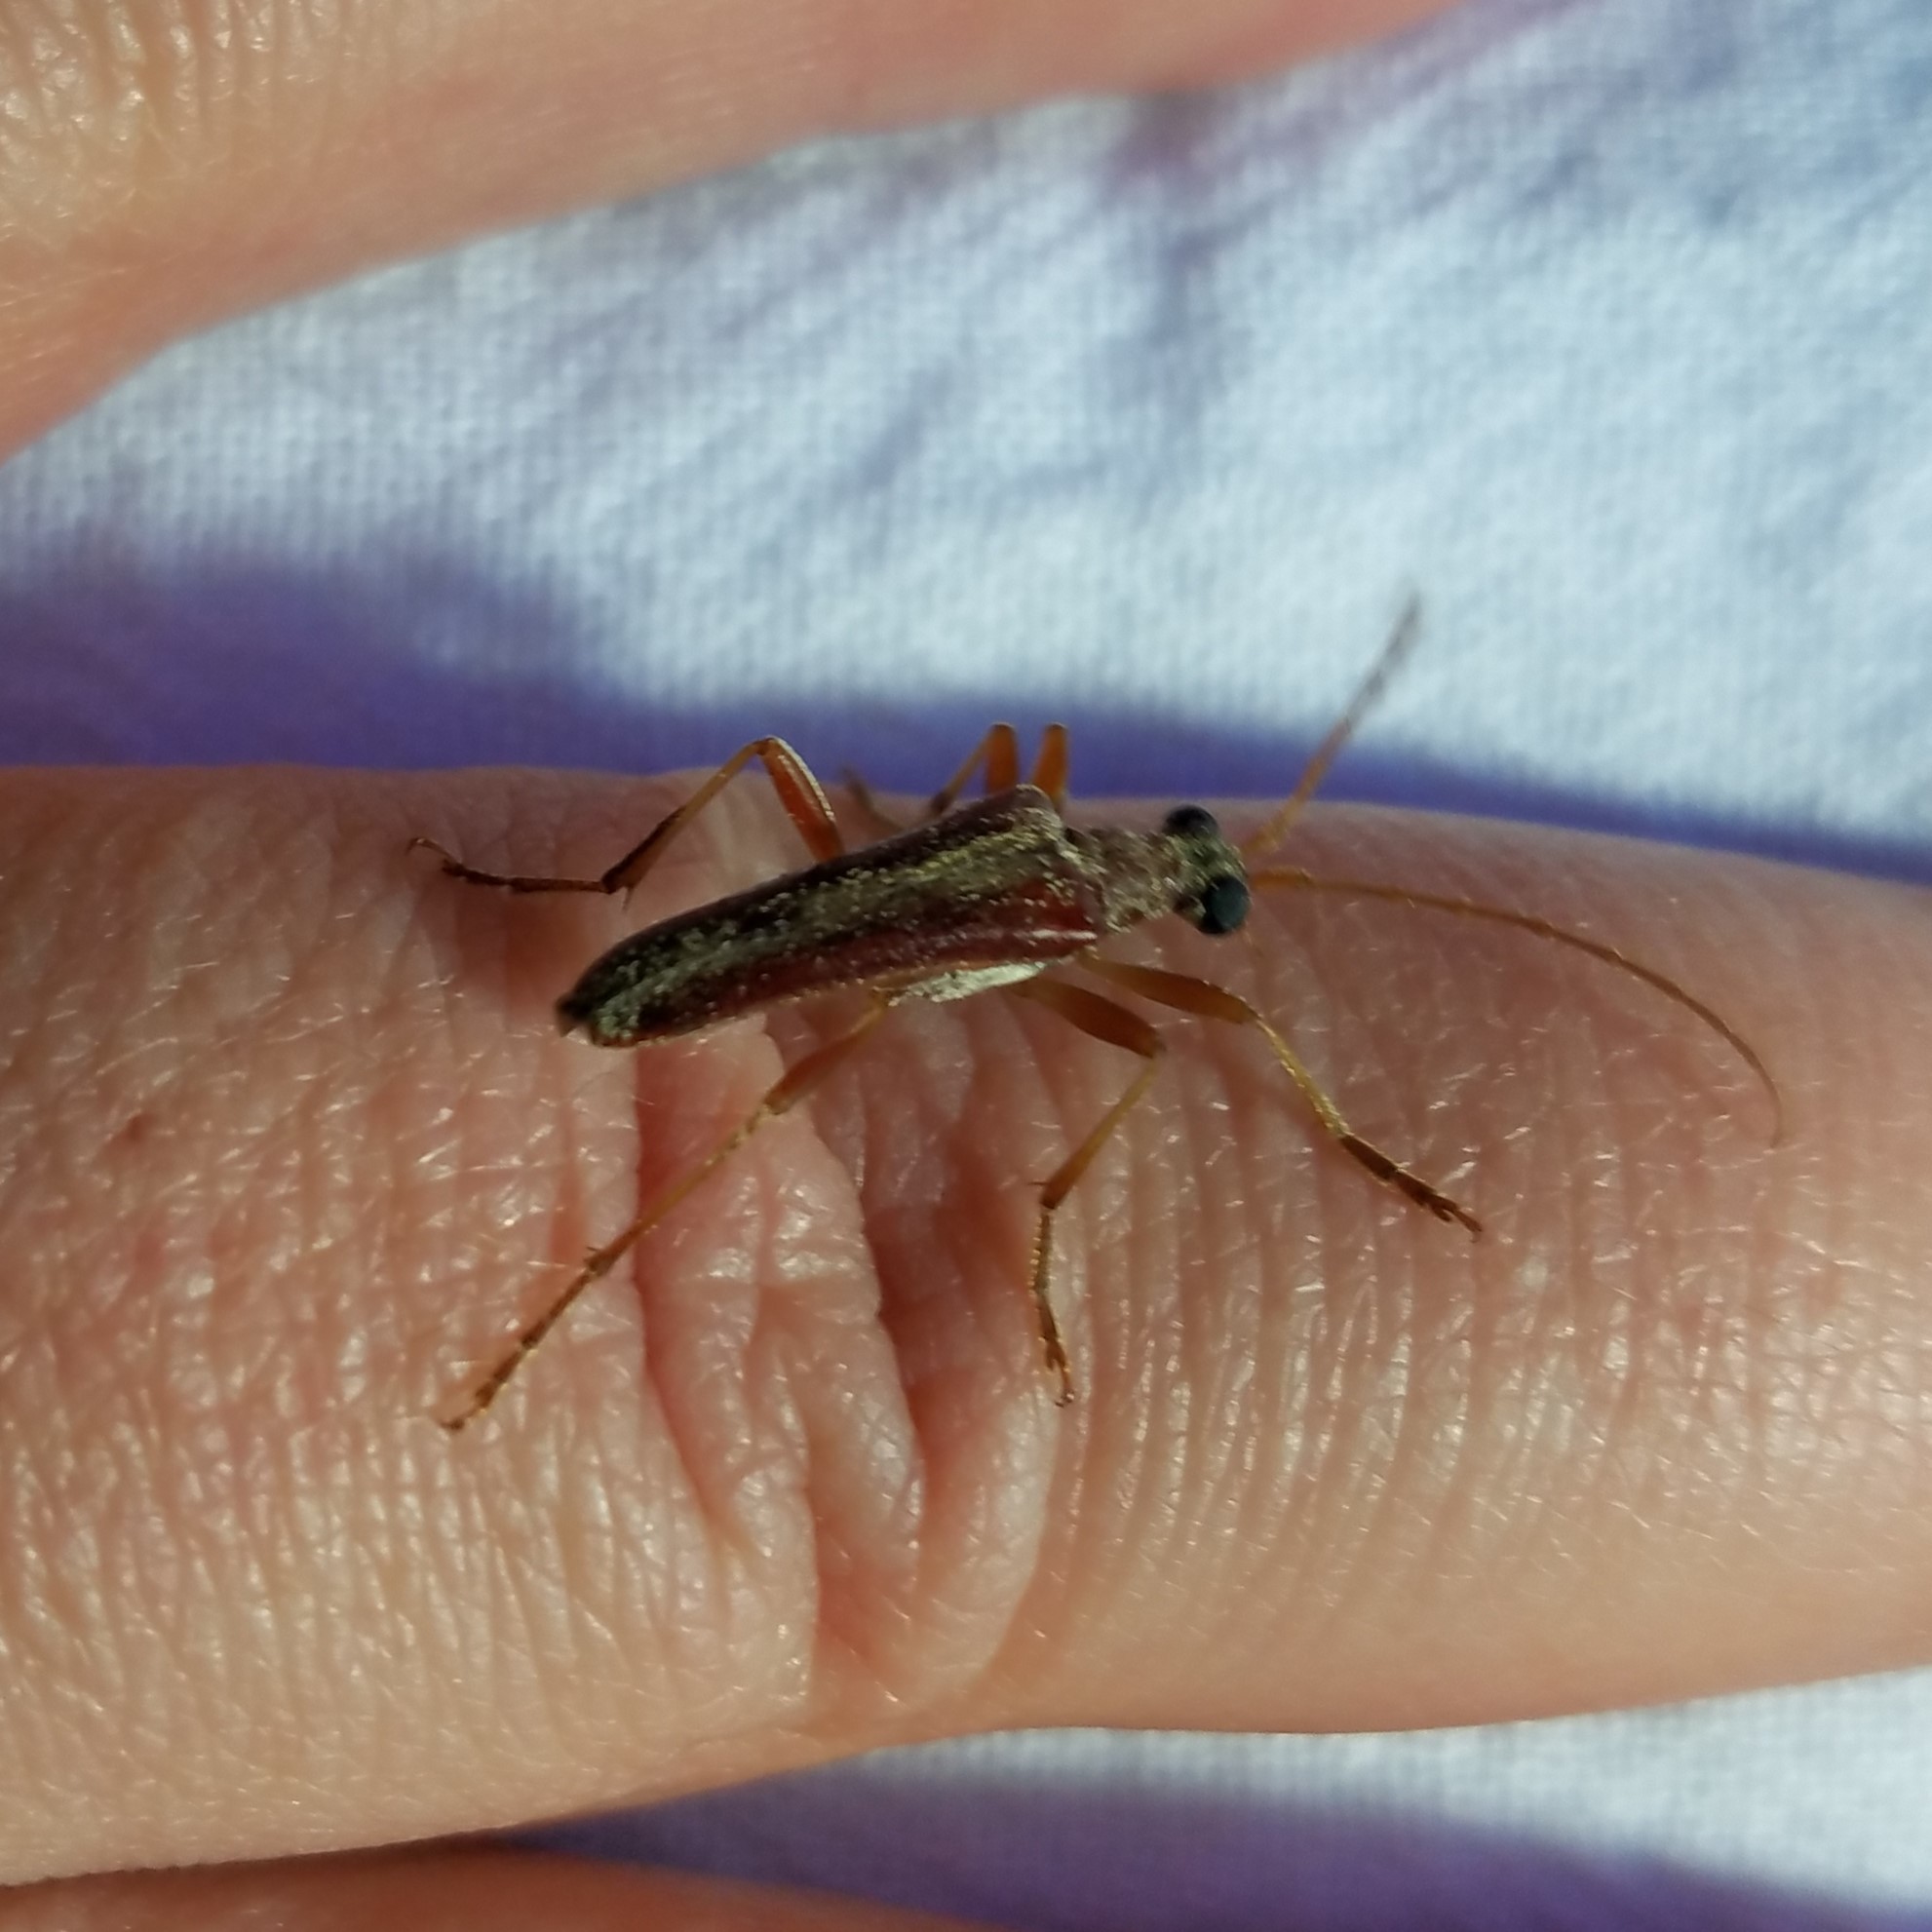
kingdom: Animalia
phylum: Arthropoda
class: Insecta
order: Coleoptera
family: Cerambycidae
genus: Stenocorus
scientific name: Stenocorus cinnamopterus
